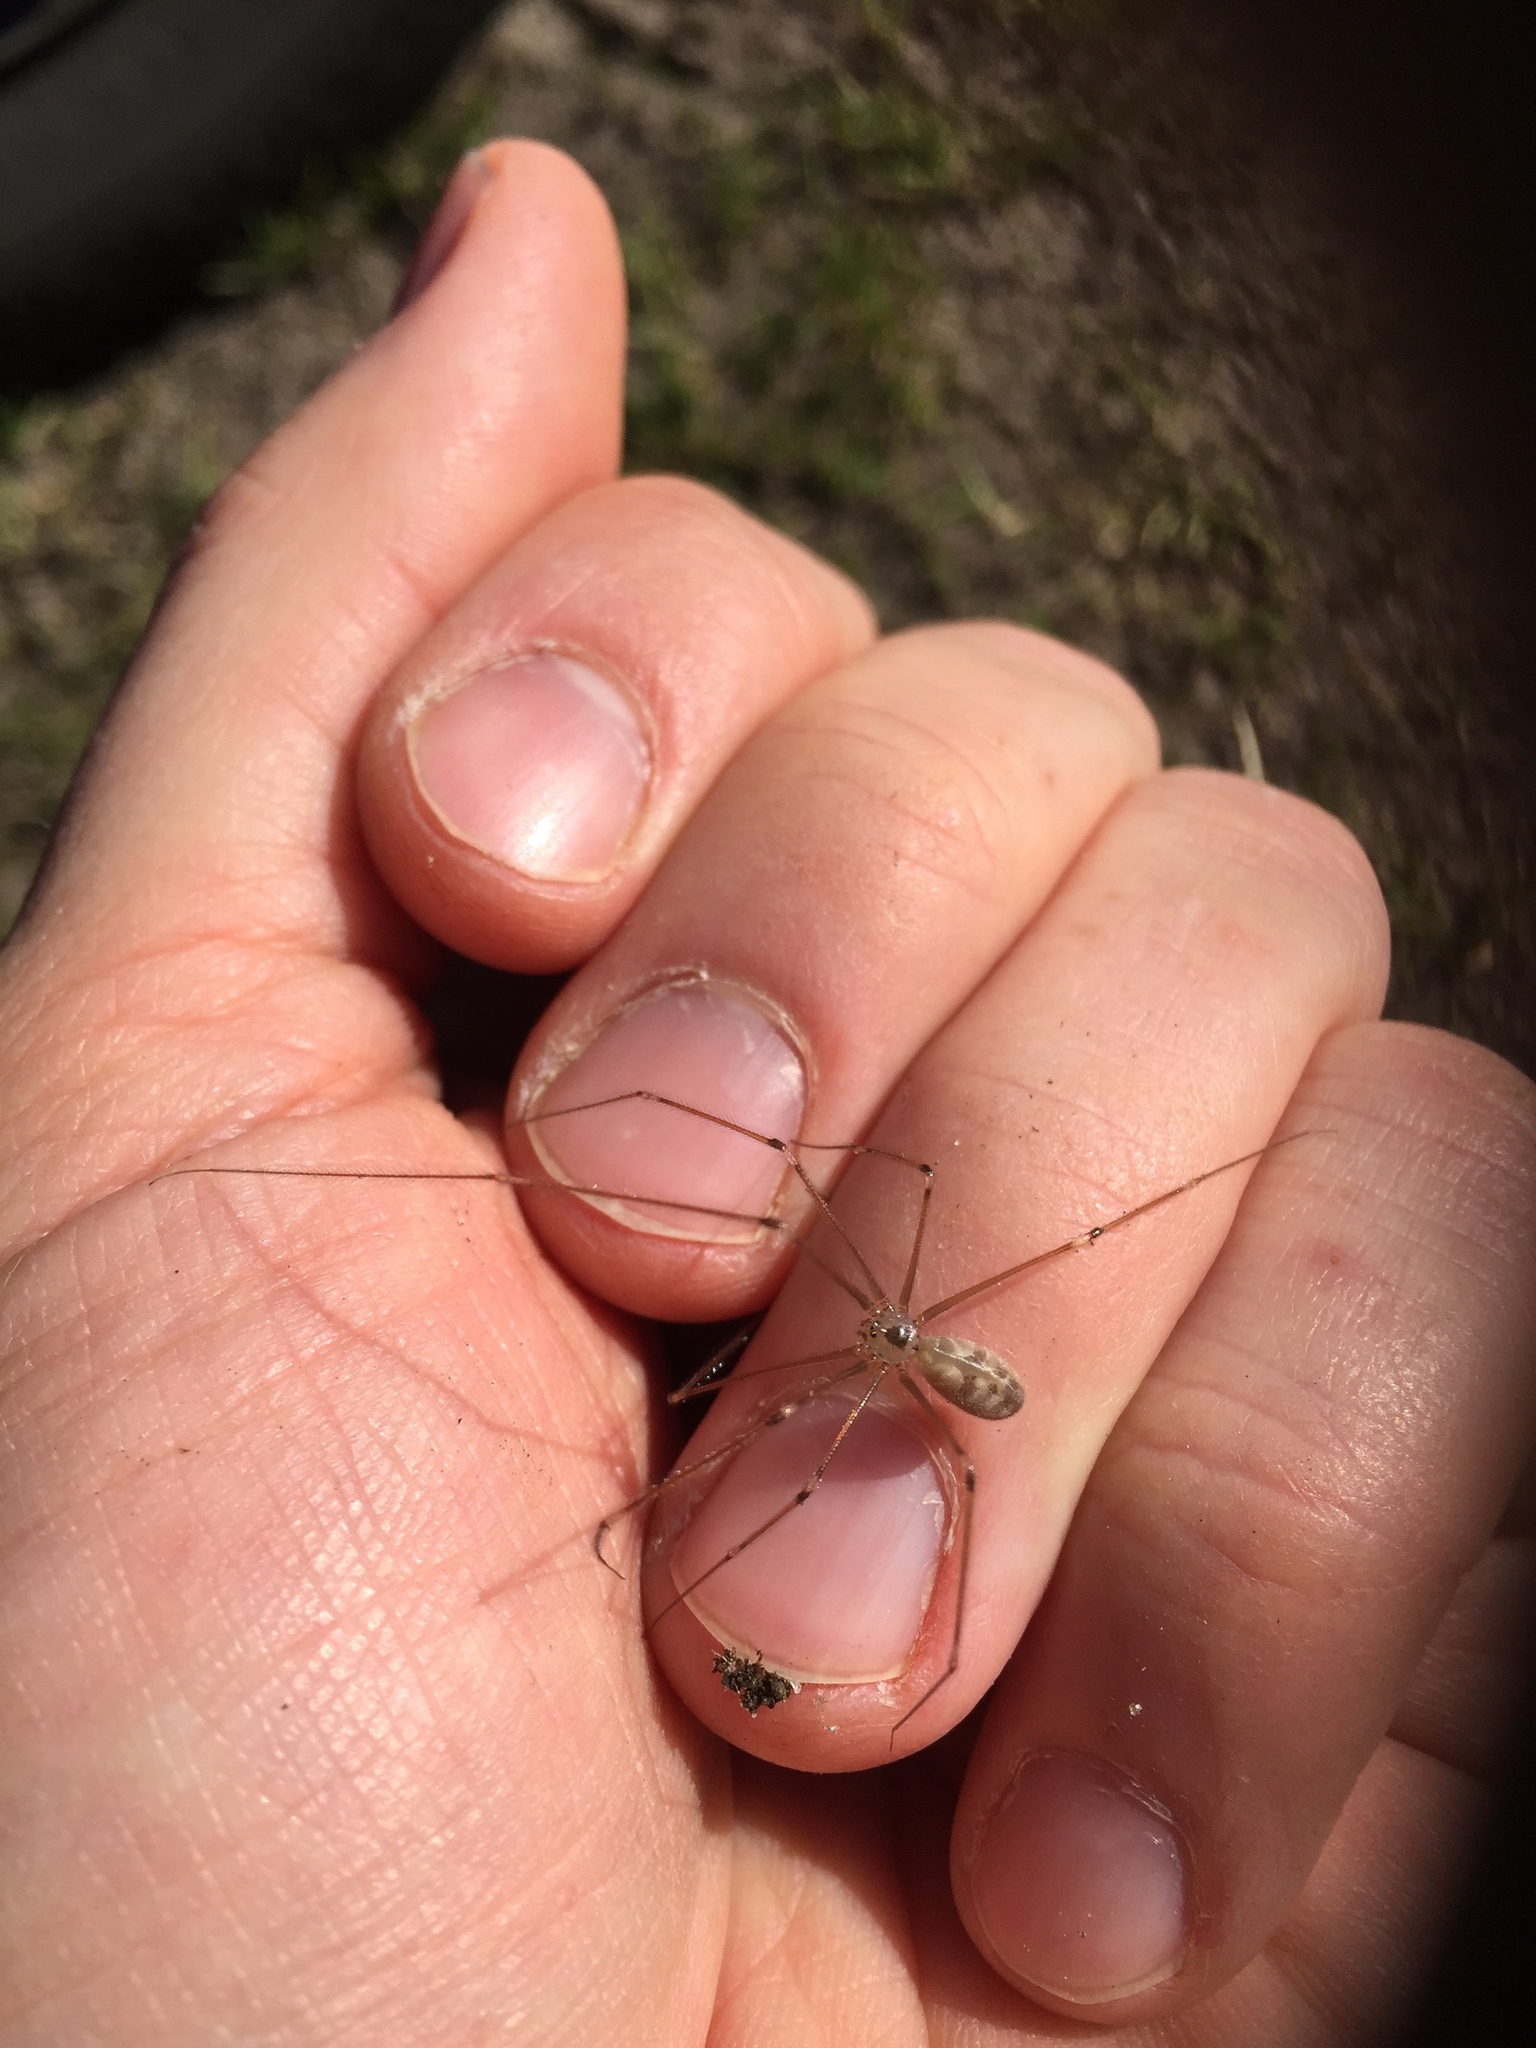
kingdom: Animalia
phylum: Arthropoda
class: Arachnida
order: Araneae
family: Pholcidae
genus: Pholcus
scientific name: Pholcus phalangioides
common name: Longbodied cellar spider
